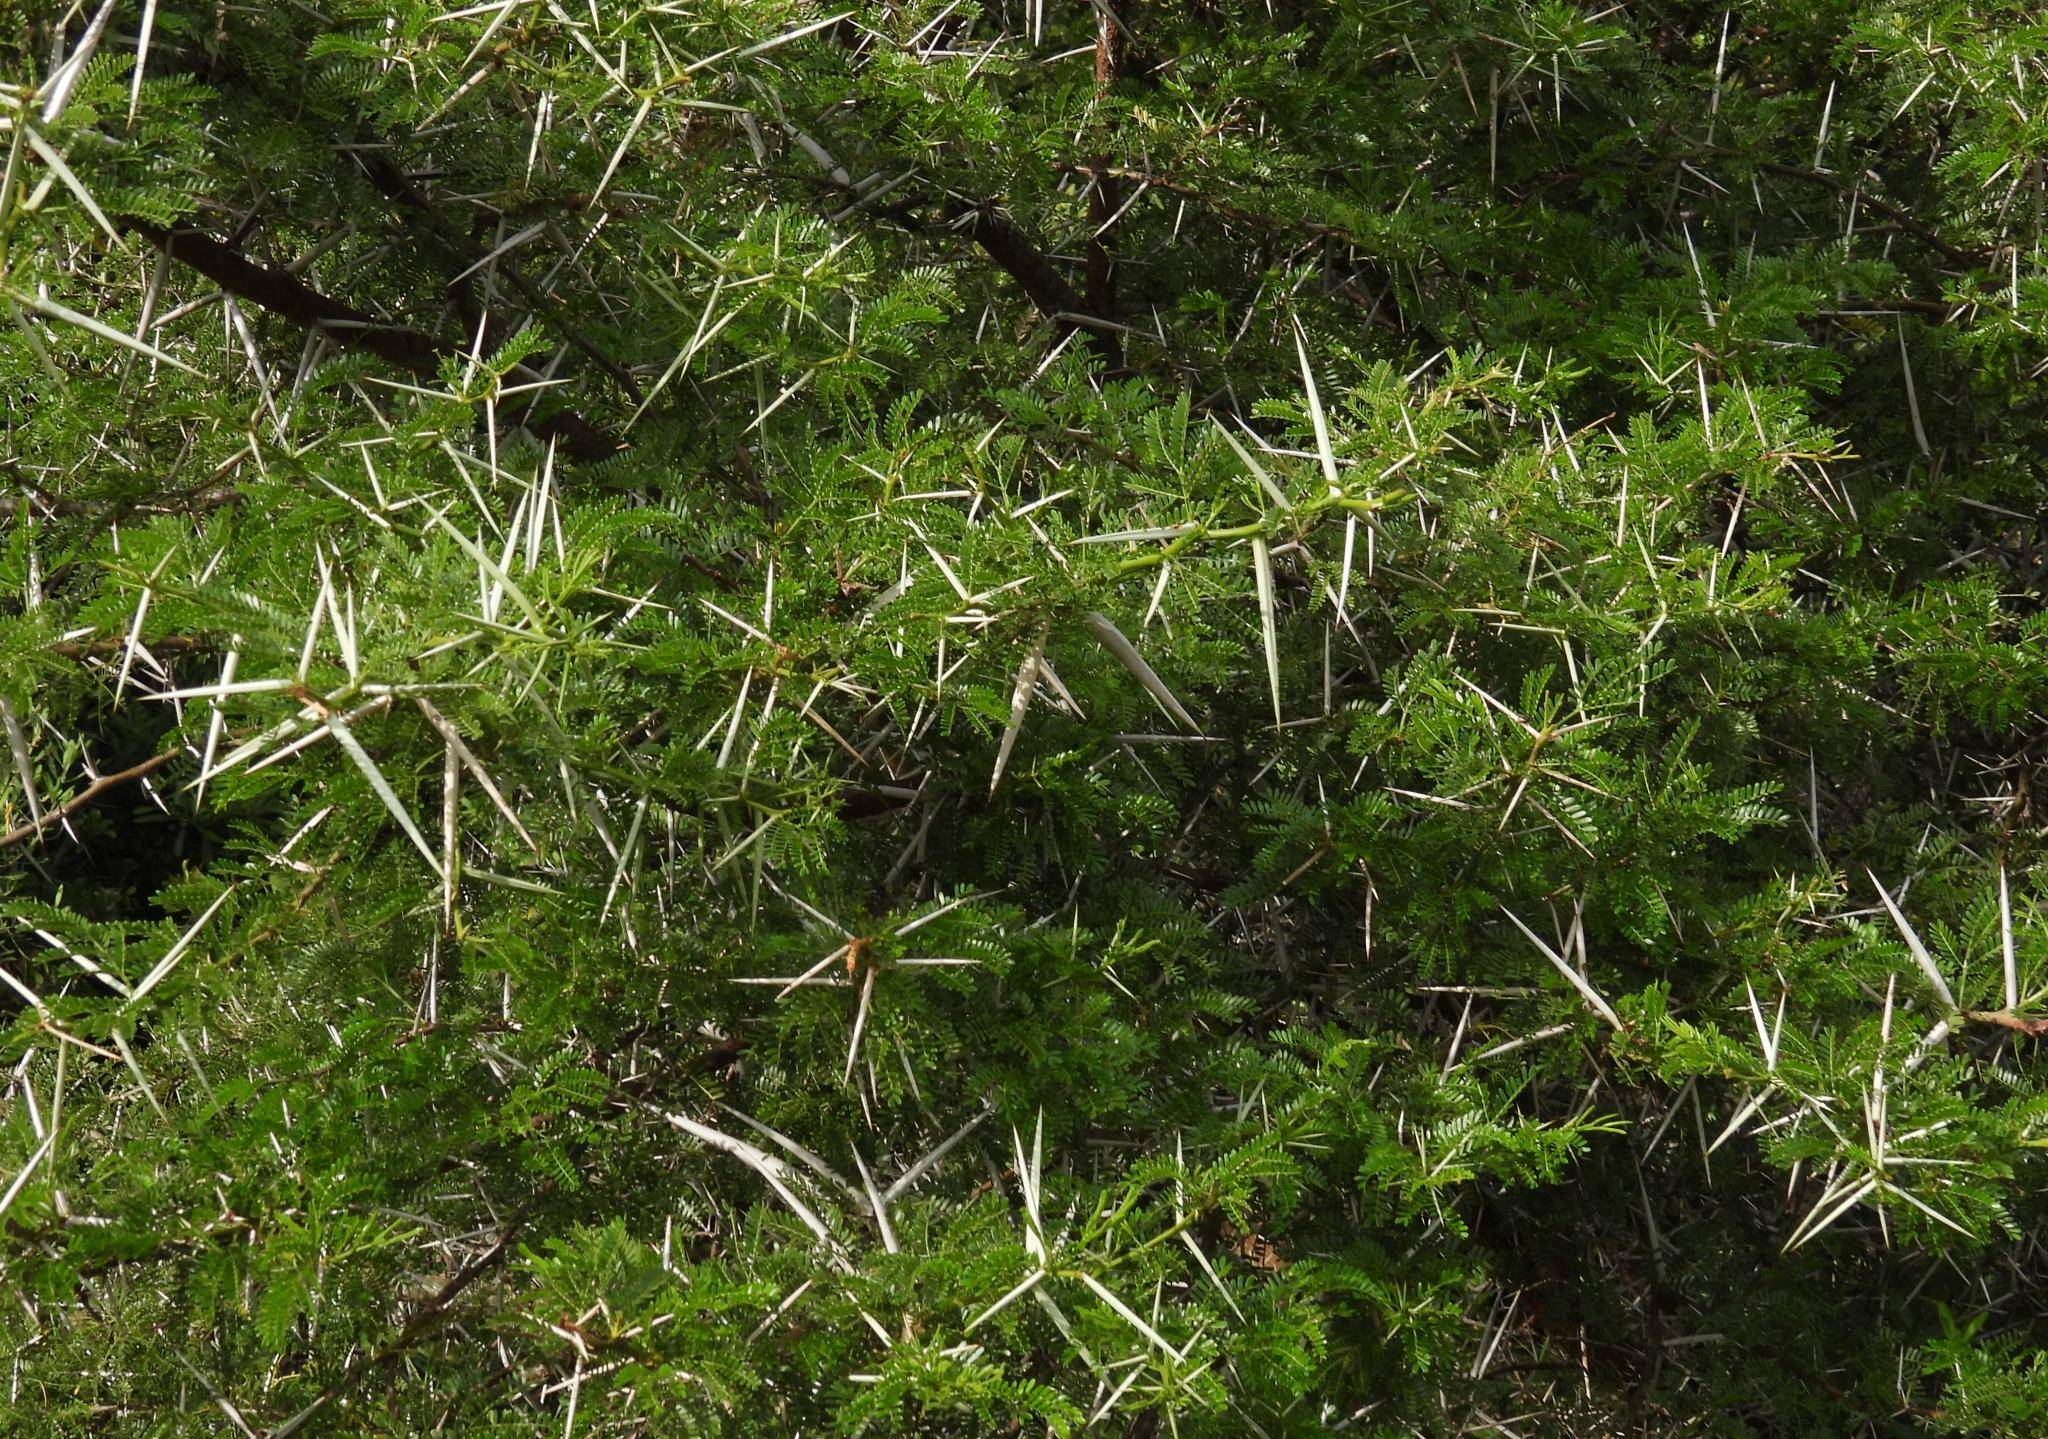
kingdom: Plantae
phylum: Tracheophyta
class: Magnoliopsida
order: Fabales
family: Fabaceae
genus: Vachellia
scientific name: Vachellia karroo
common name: Sweet thorn
